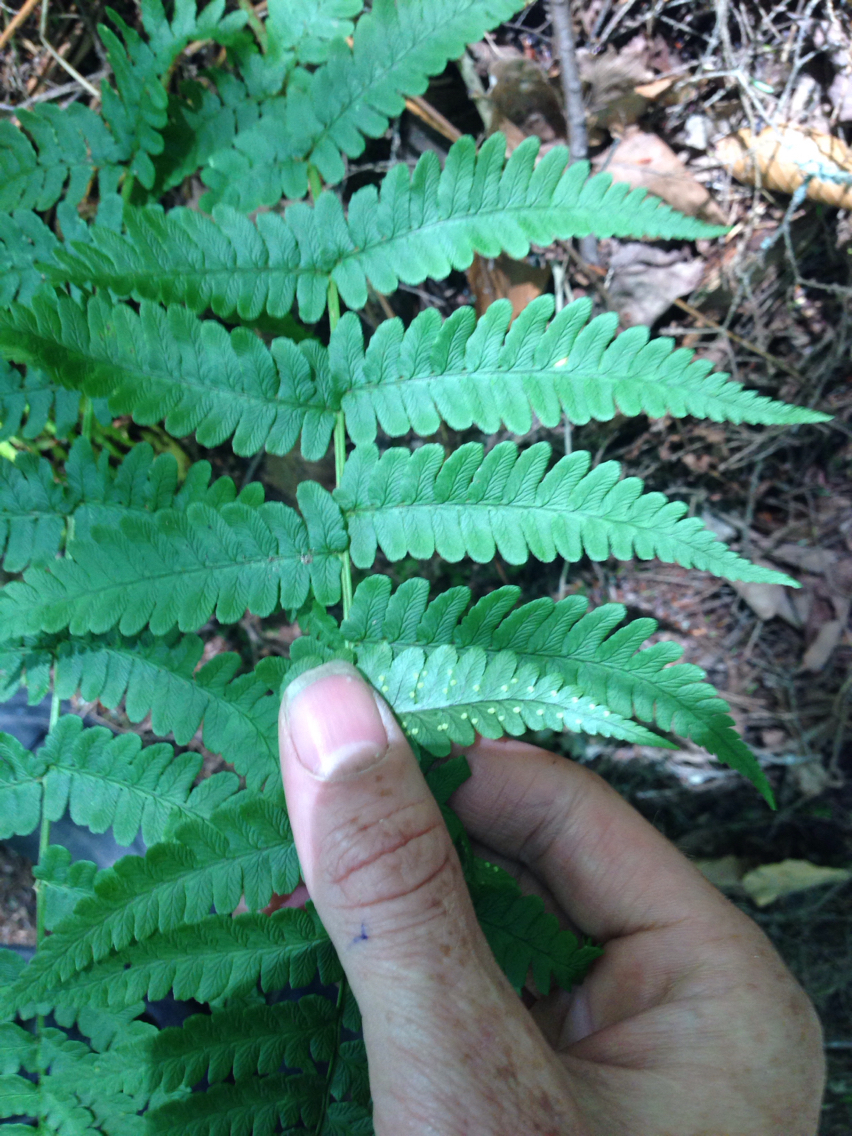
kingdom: Plantae
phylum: Tracheophyta
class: Polypodiopsida
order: Polypodiales
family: Dryopteridaceae
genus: Dryopteris
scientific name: Dryopteris marginalis
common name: Marginal wood fern
